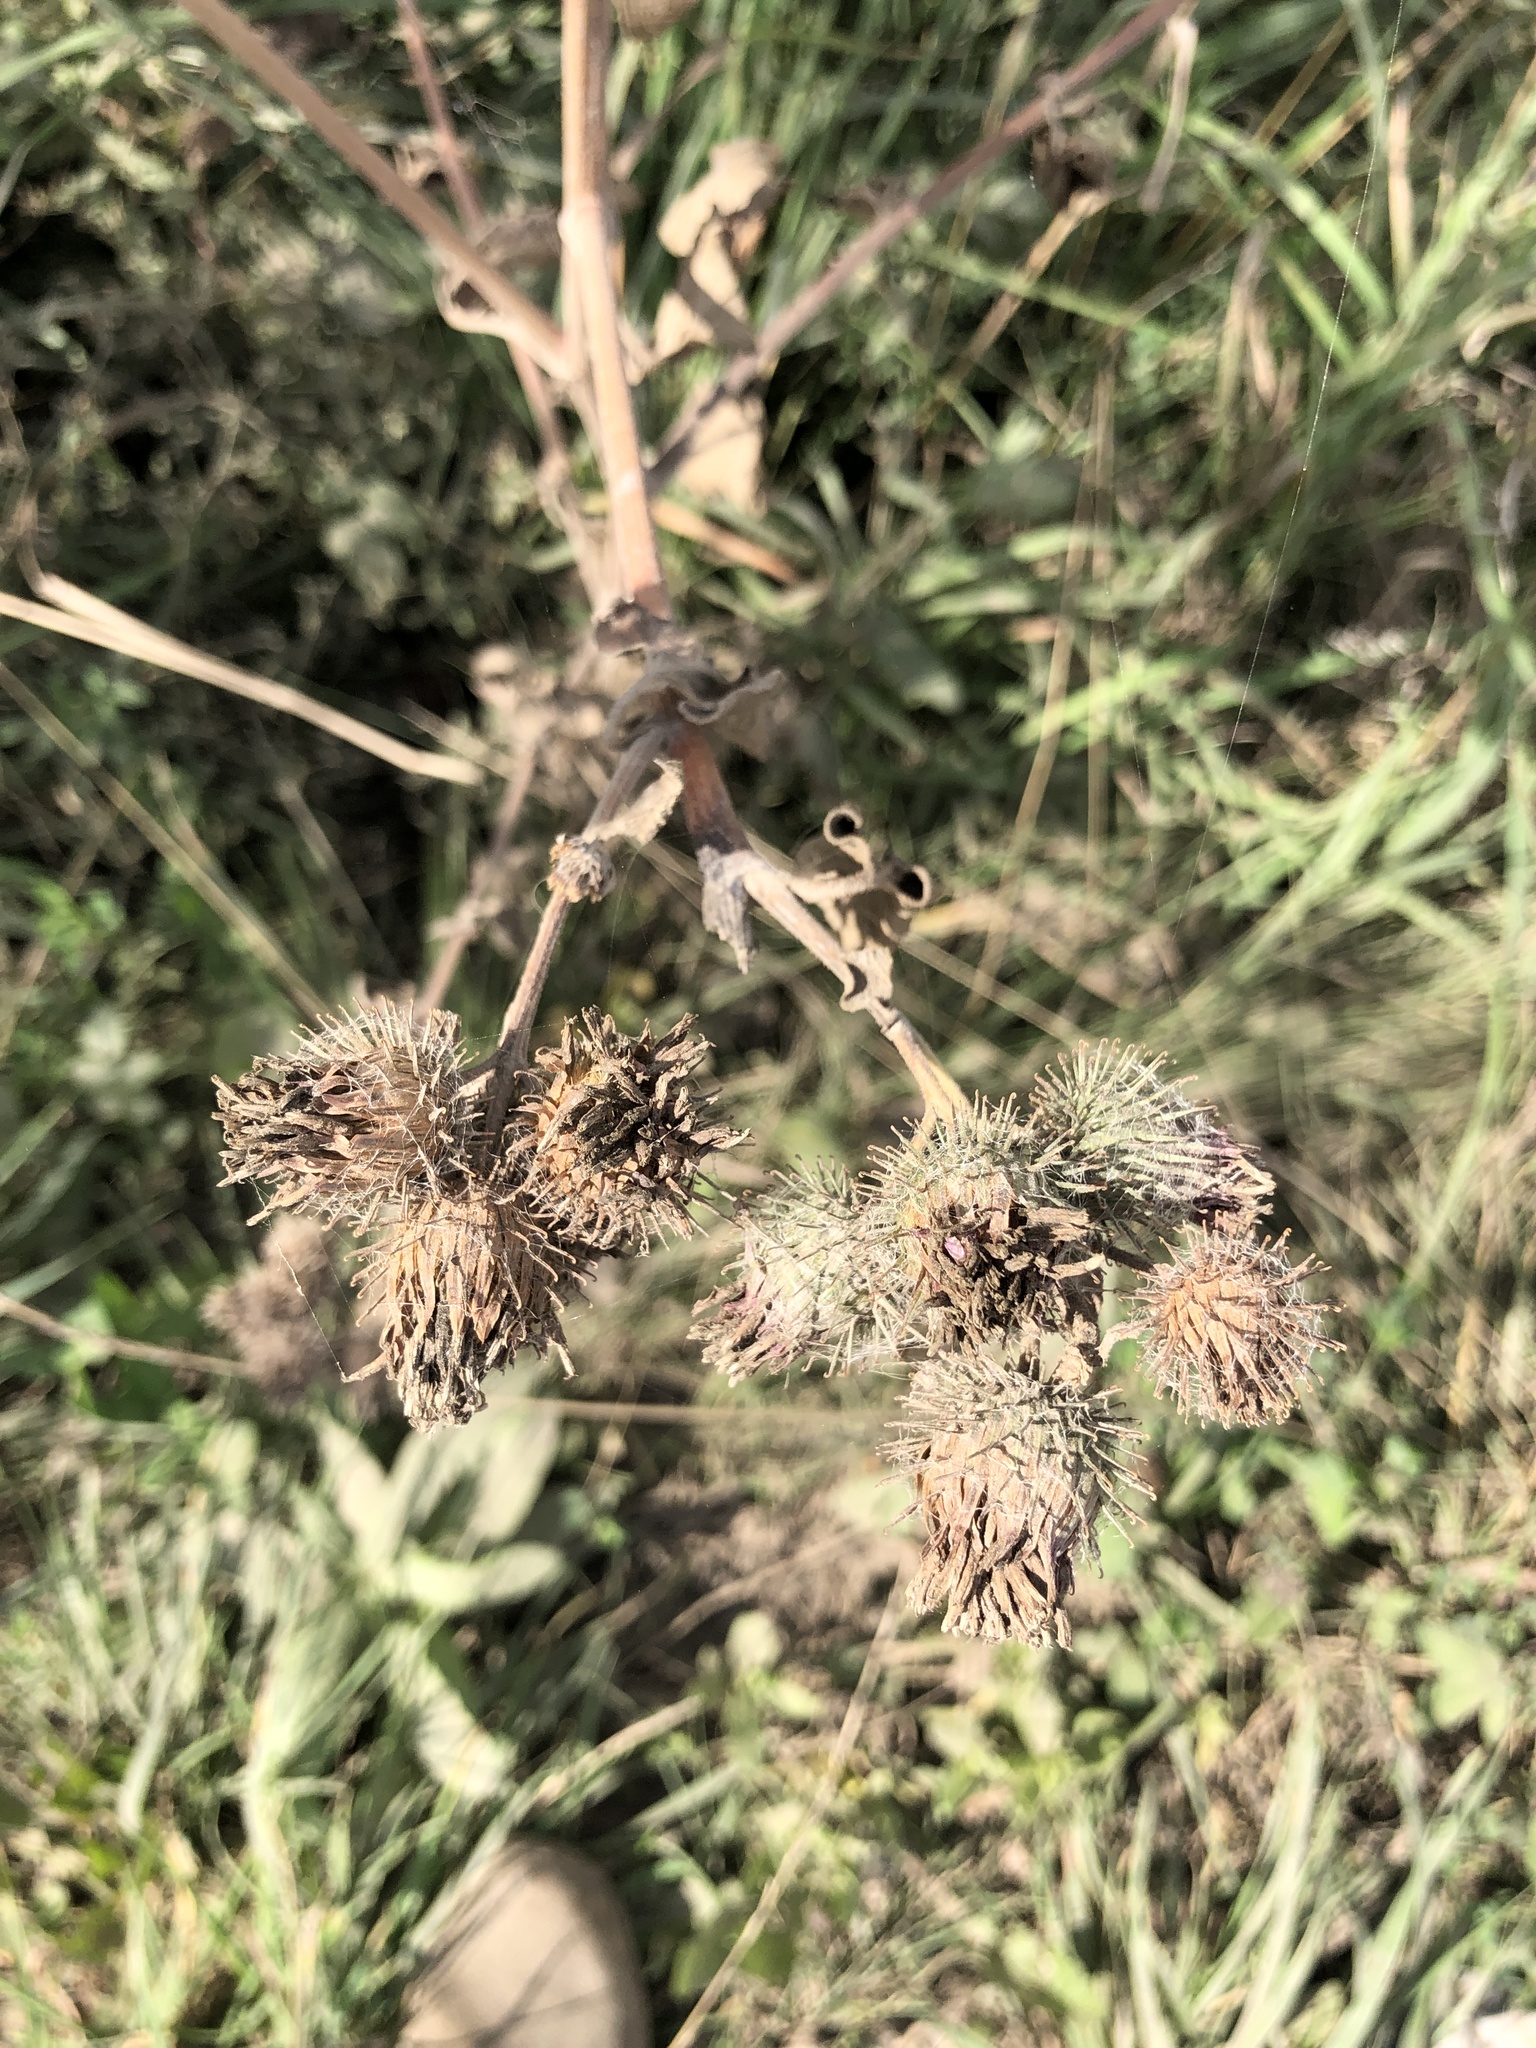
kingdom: Plantae
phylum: Tracheophyta
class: Magnoliopsida
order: Asterales
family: Asteraceae
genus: Arctium
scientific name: Arctium tomentosum
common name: Woolly burdock
